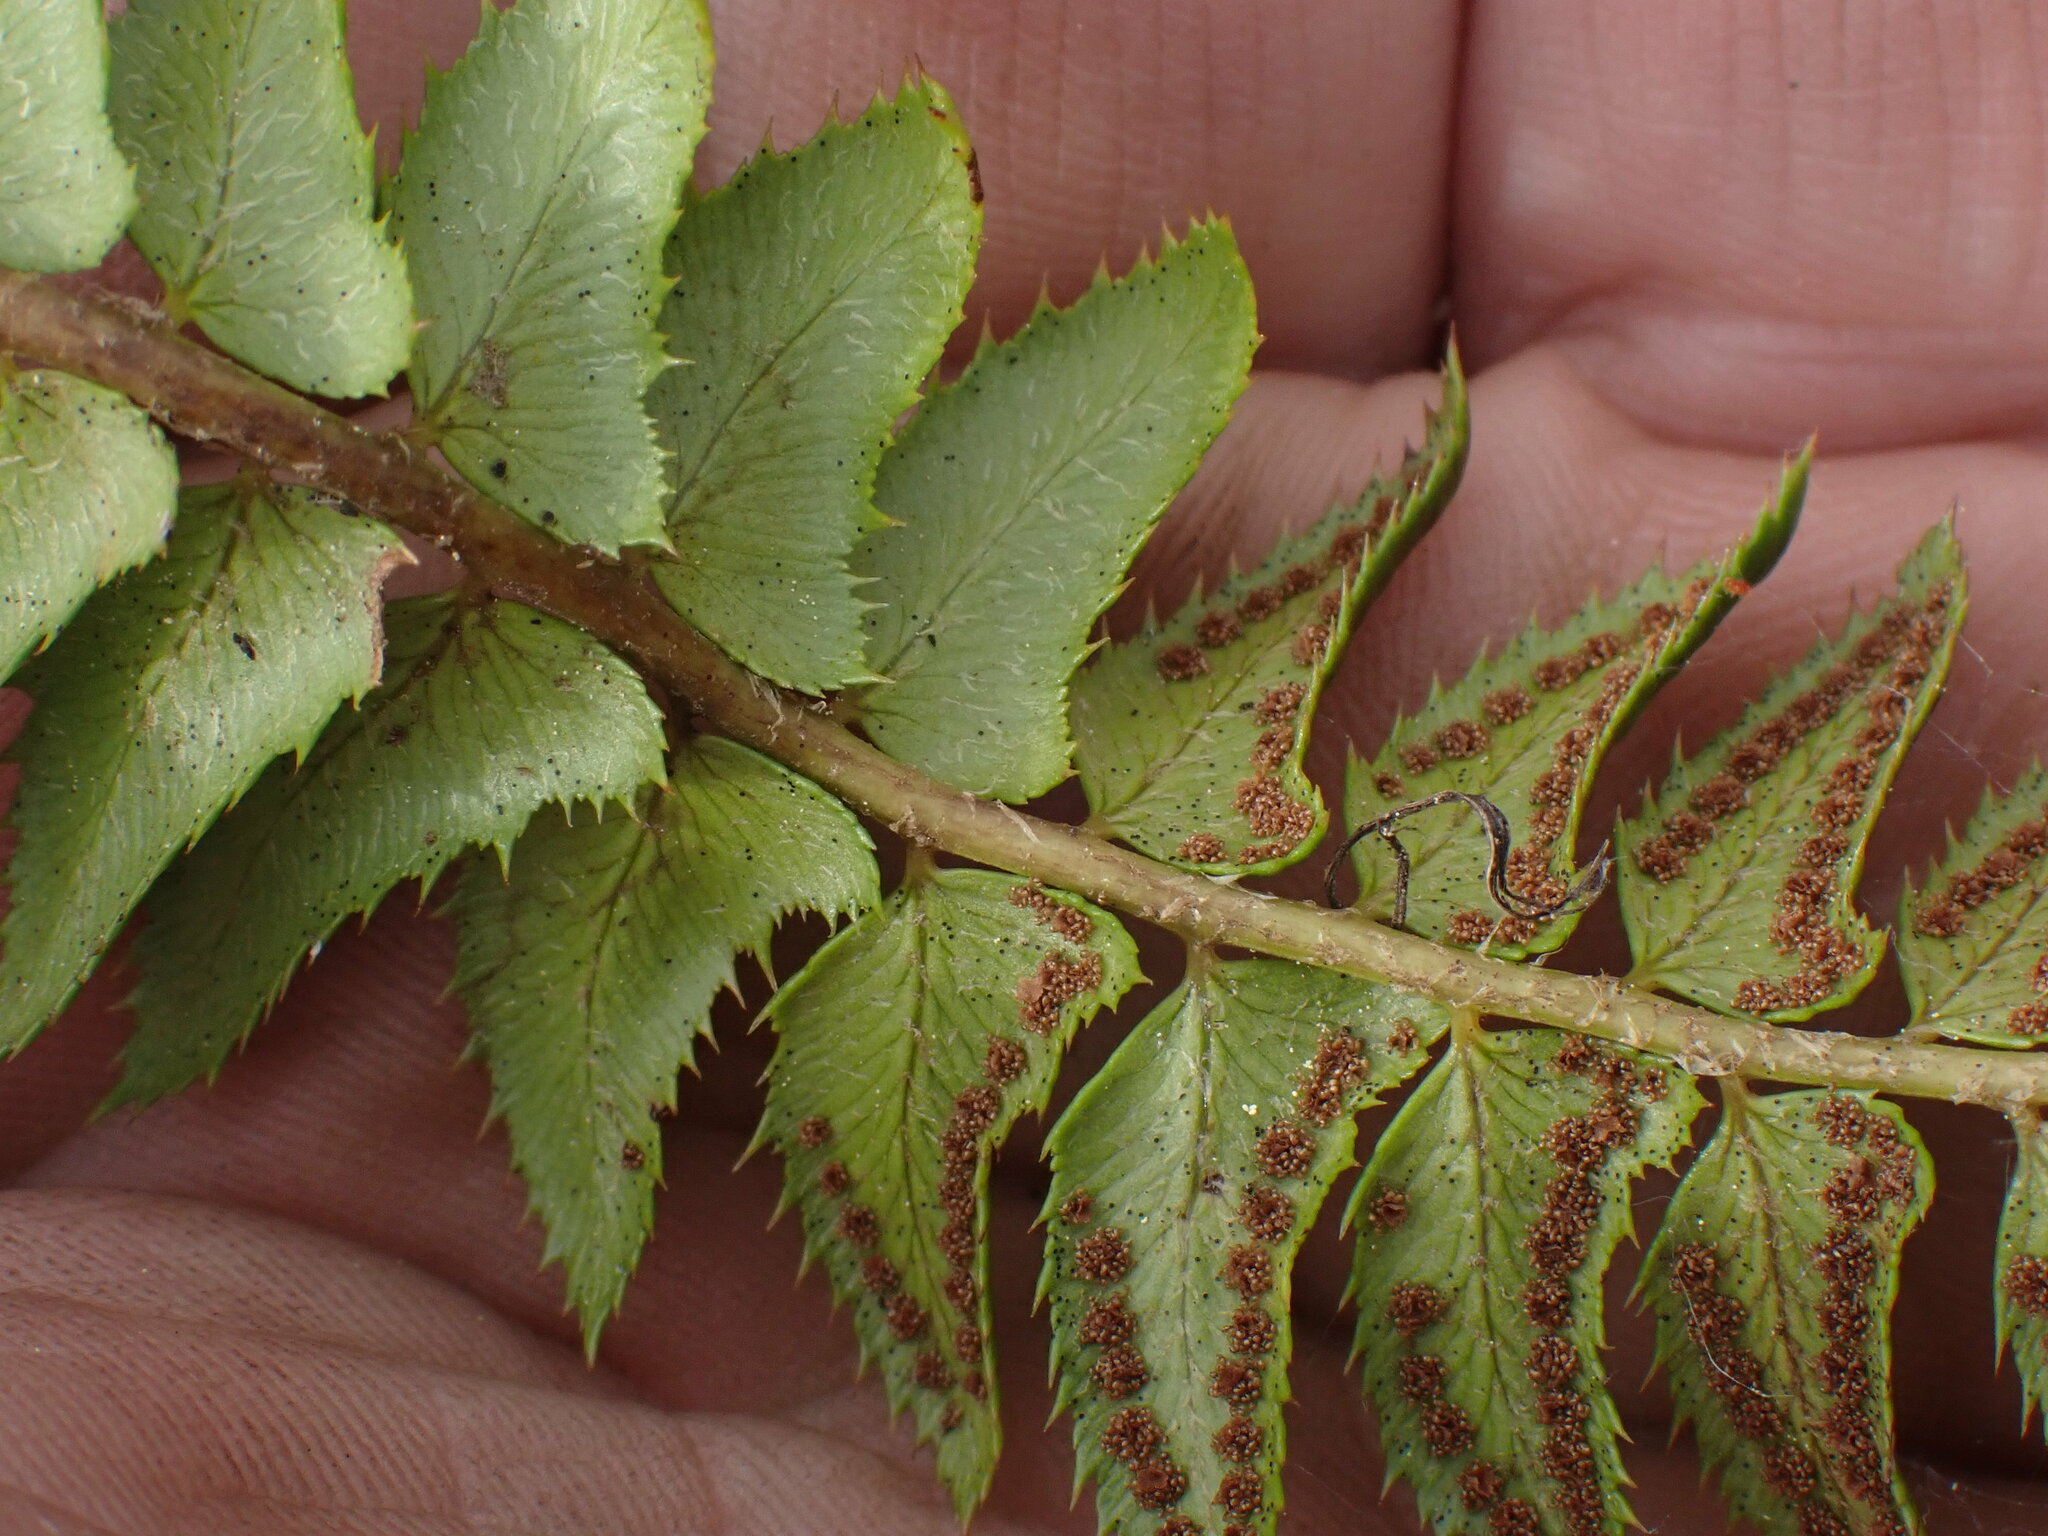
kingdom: Plantae
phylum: Tracheophyta
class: Polypodiopsida
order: Polypodiales
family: Dryopteridaceae
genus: Polystichum
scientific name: Polystichum lonchitis
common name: Holly fern
